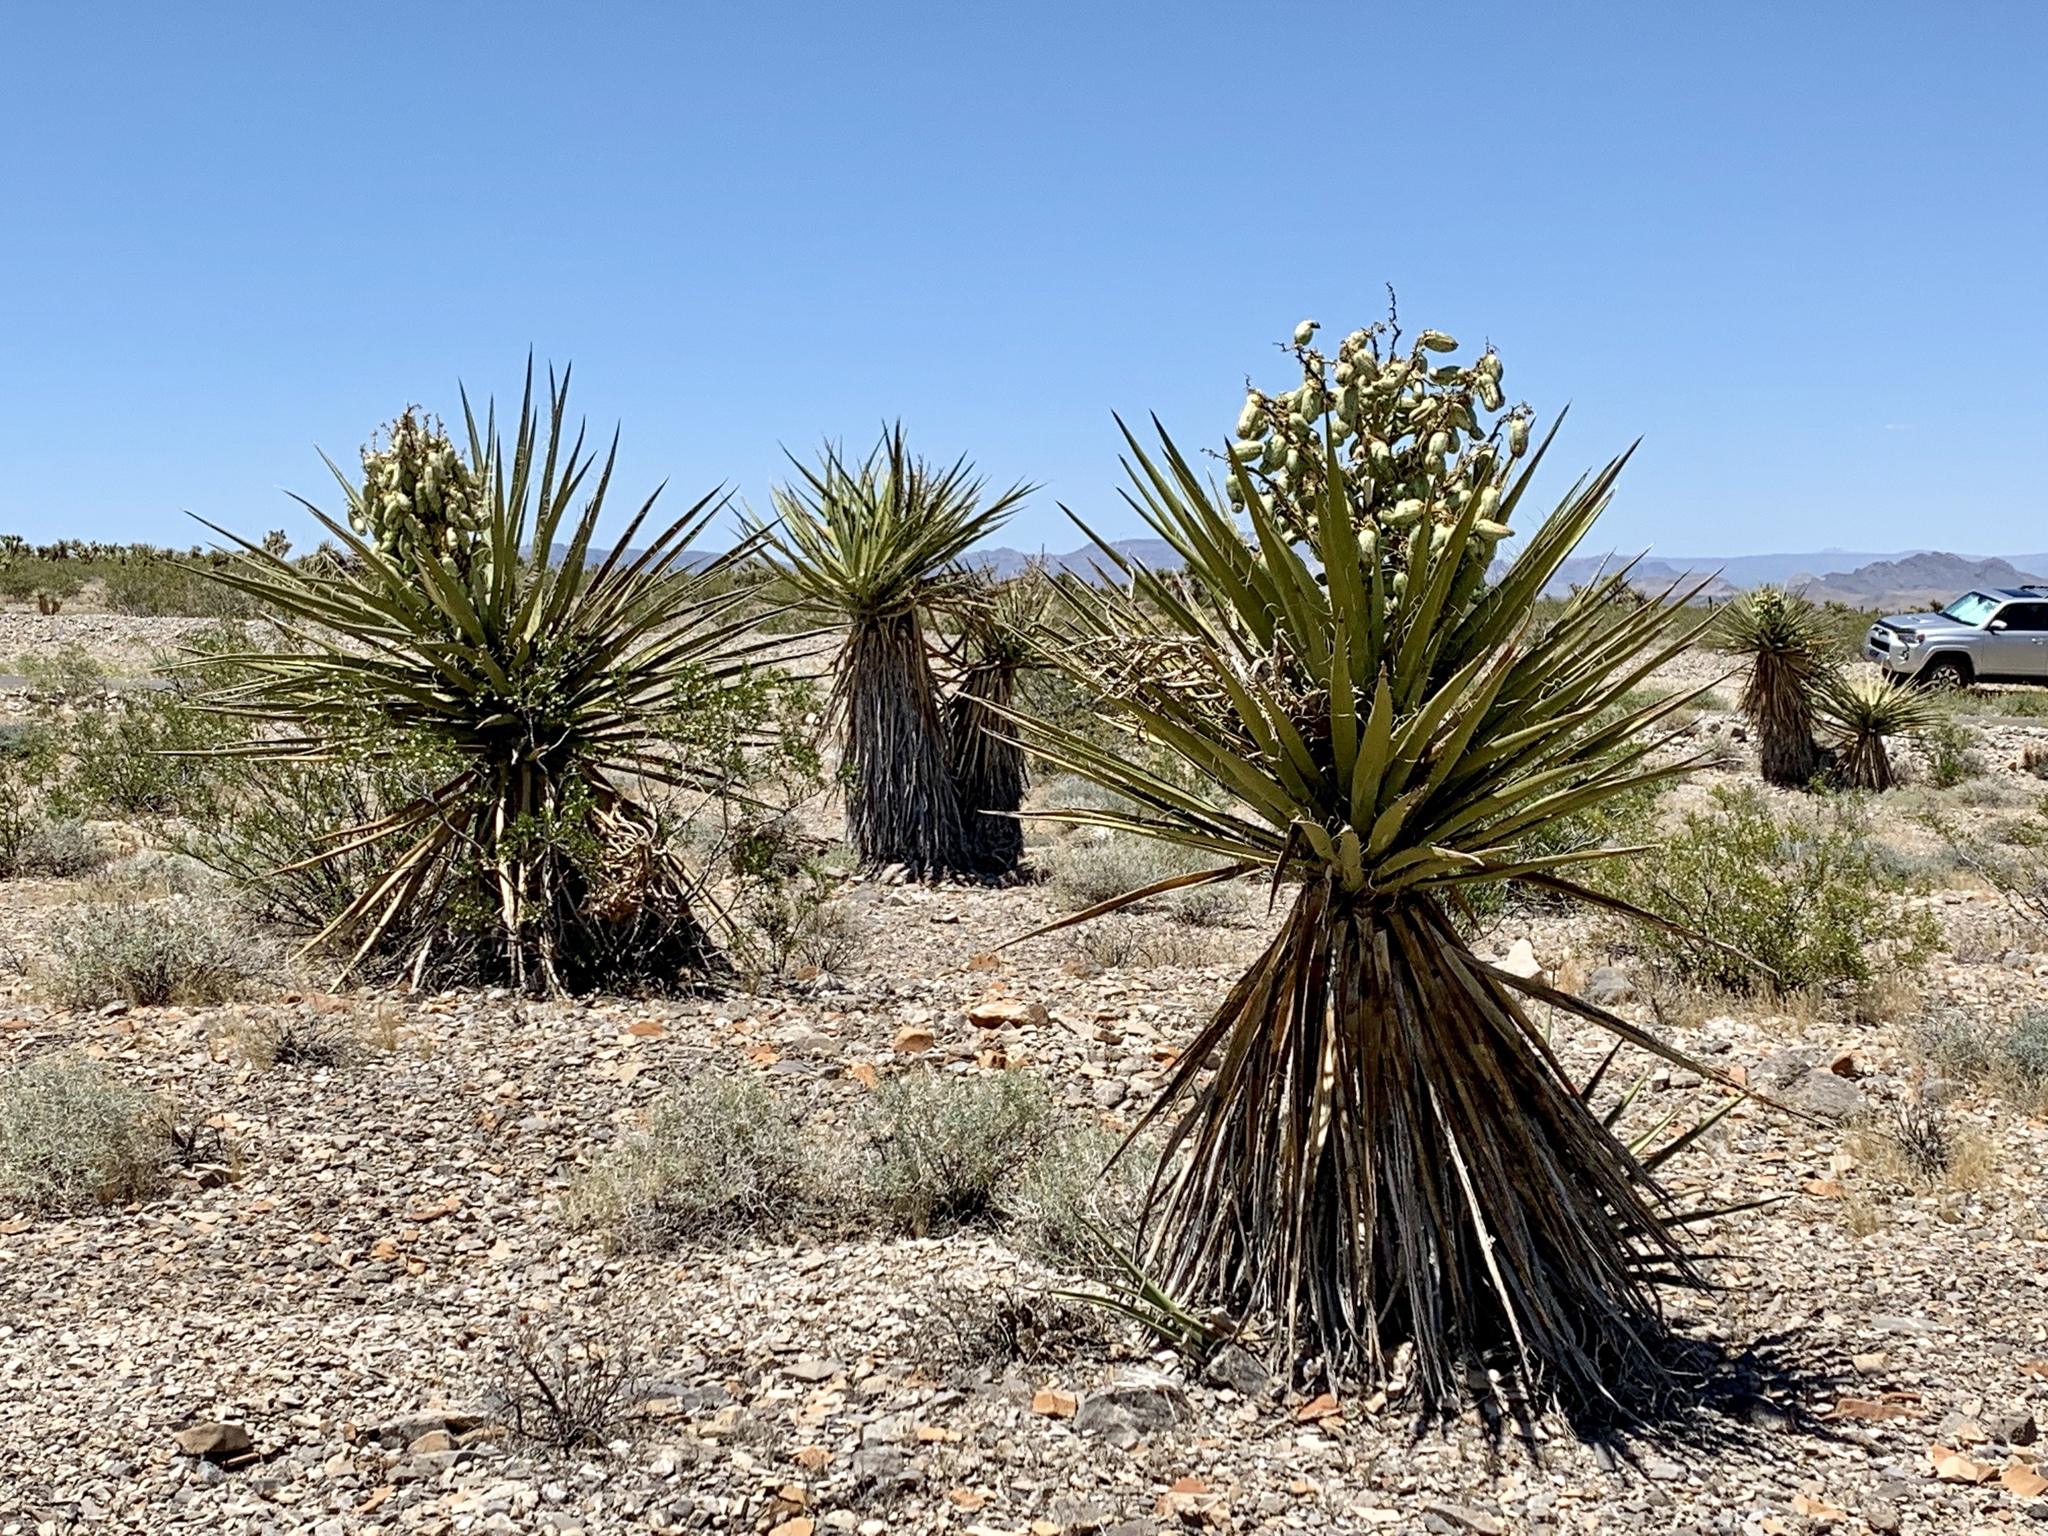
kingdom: Plantae
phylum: Tracheophyta
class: Liliopsida
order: Asparagales
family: Asparagaceae
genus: Yucca
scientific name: Yucca schidigera
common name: Mojave yucca
